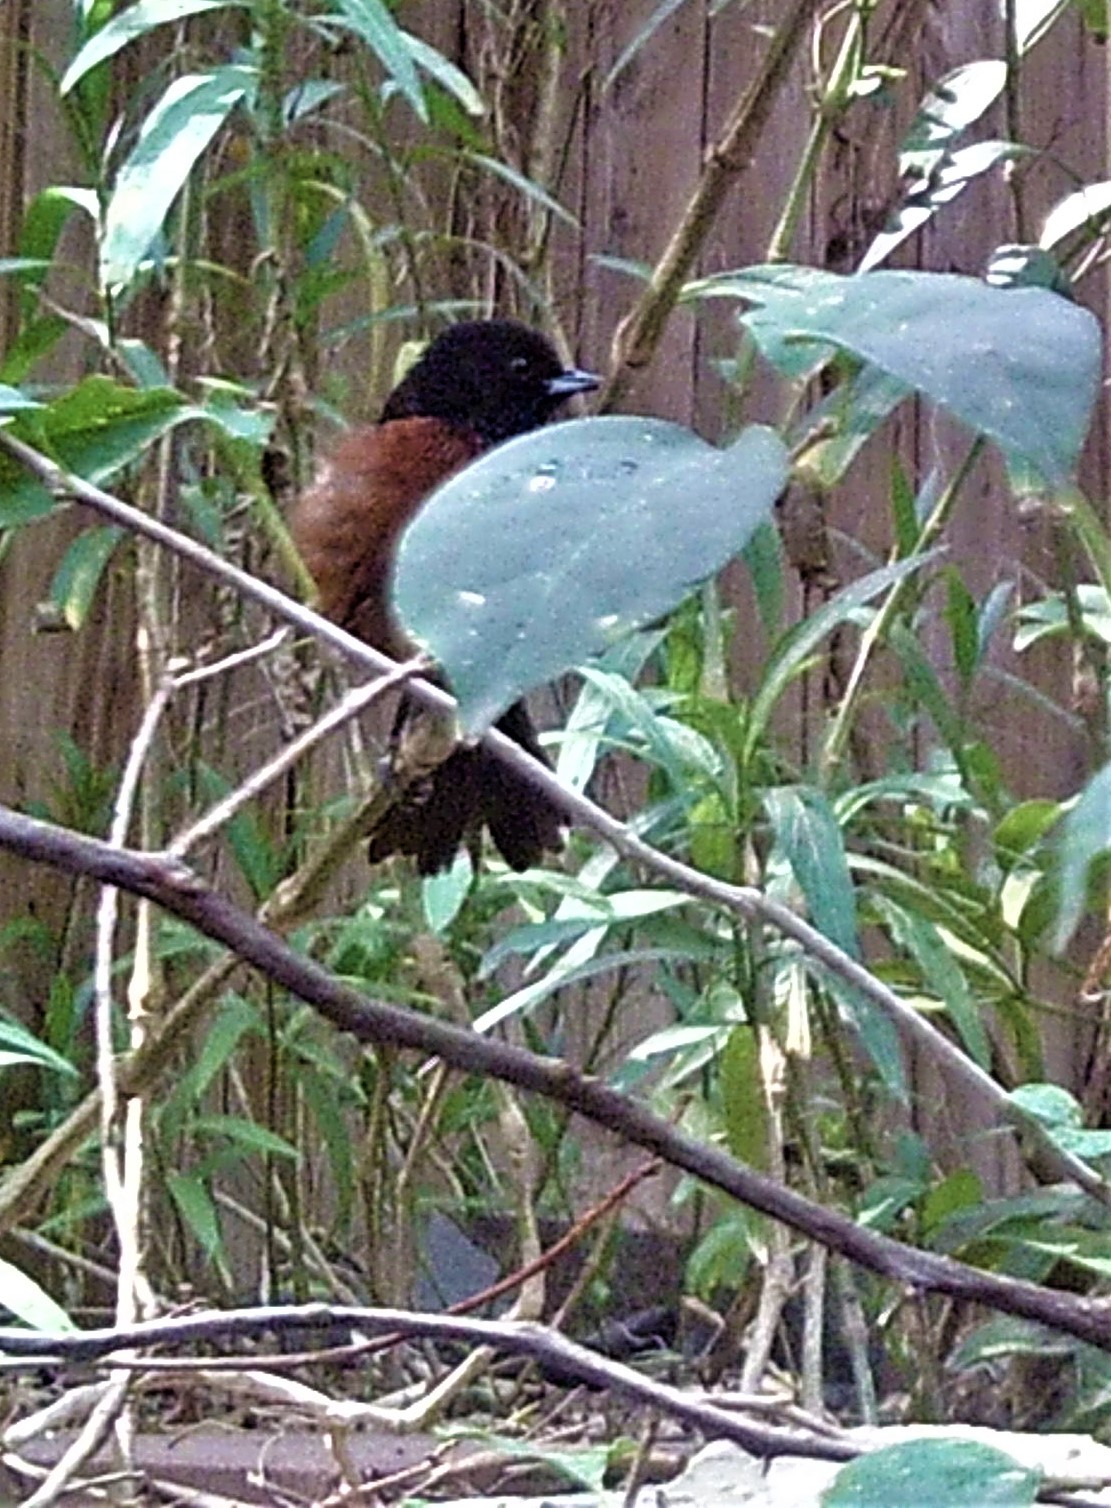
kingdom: Animalia
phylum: Chordata
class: Aves
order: Passeriformes
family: Icteridae
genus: Icterus
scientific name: Icterus spurius
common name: Orchard oriole
